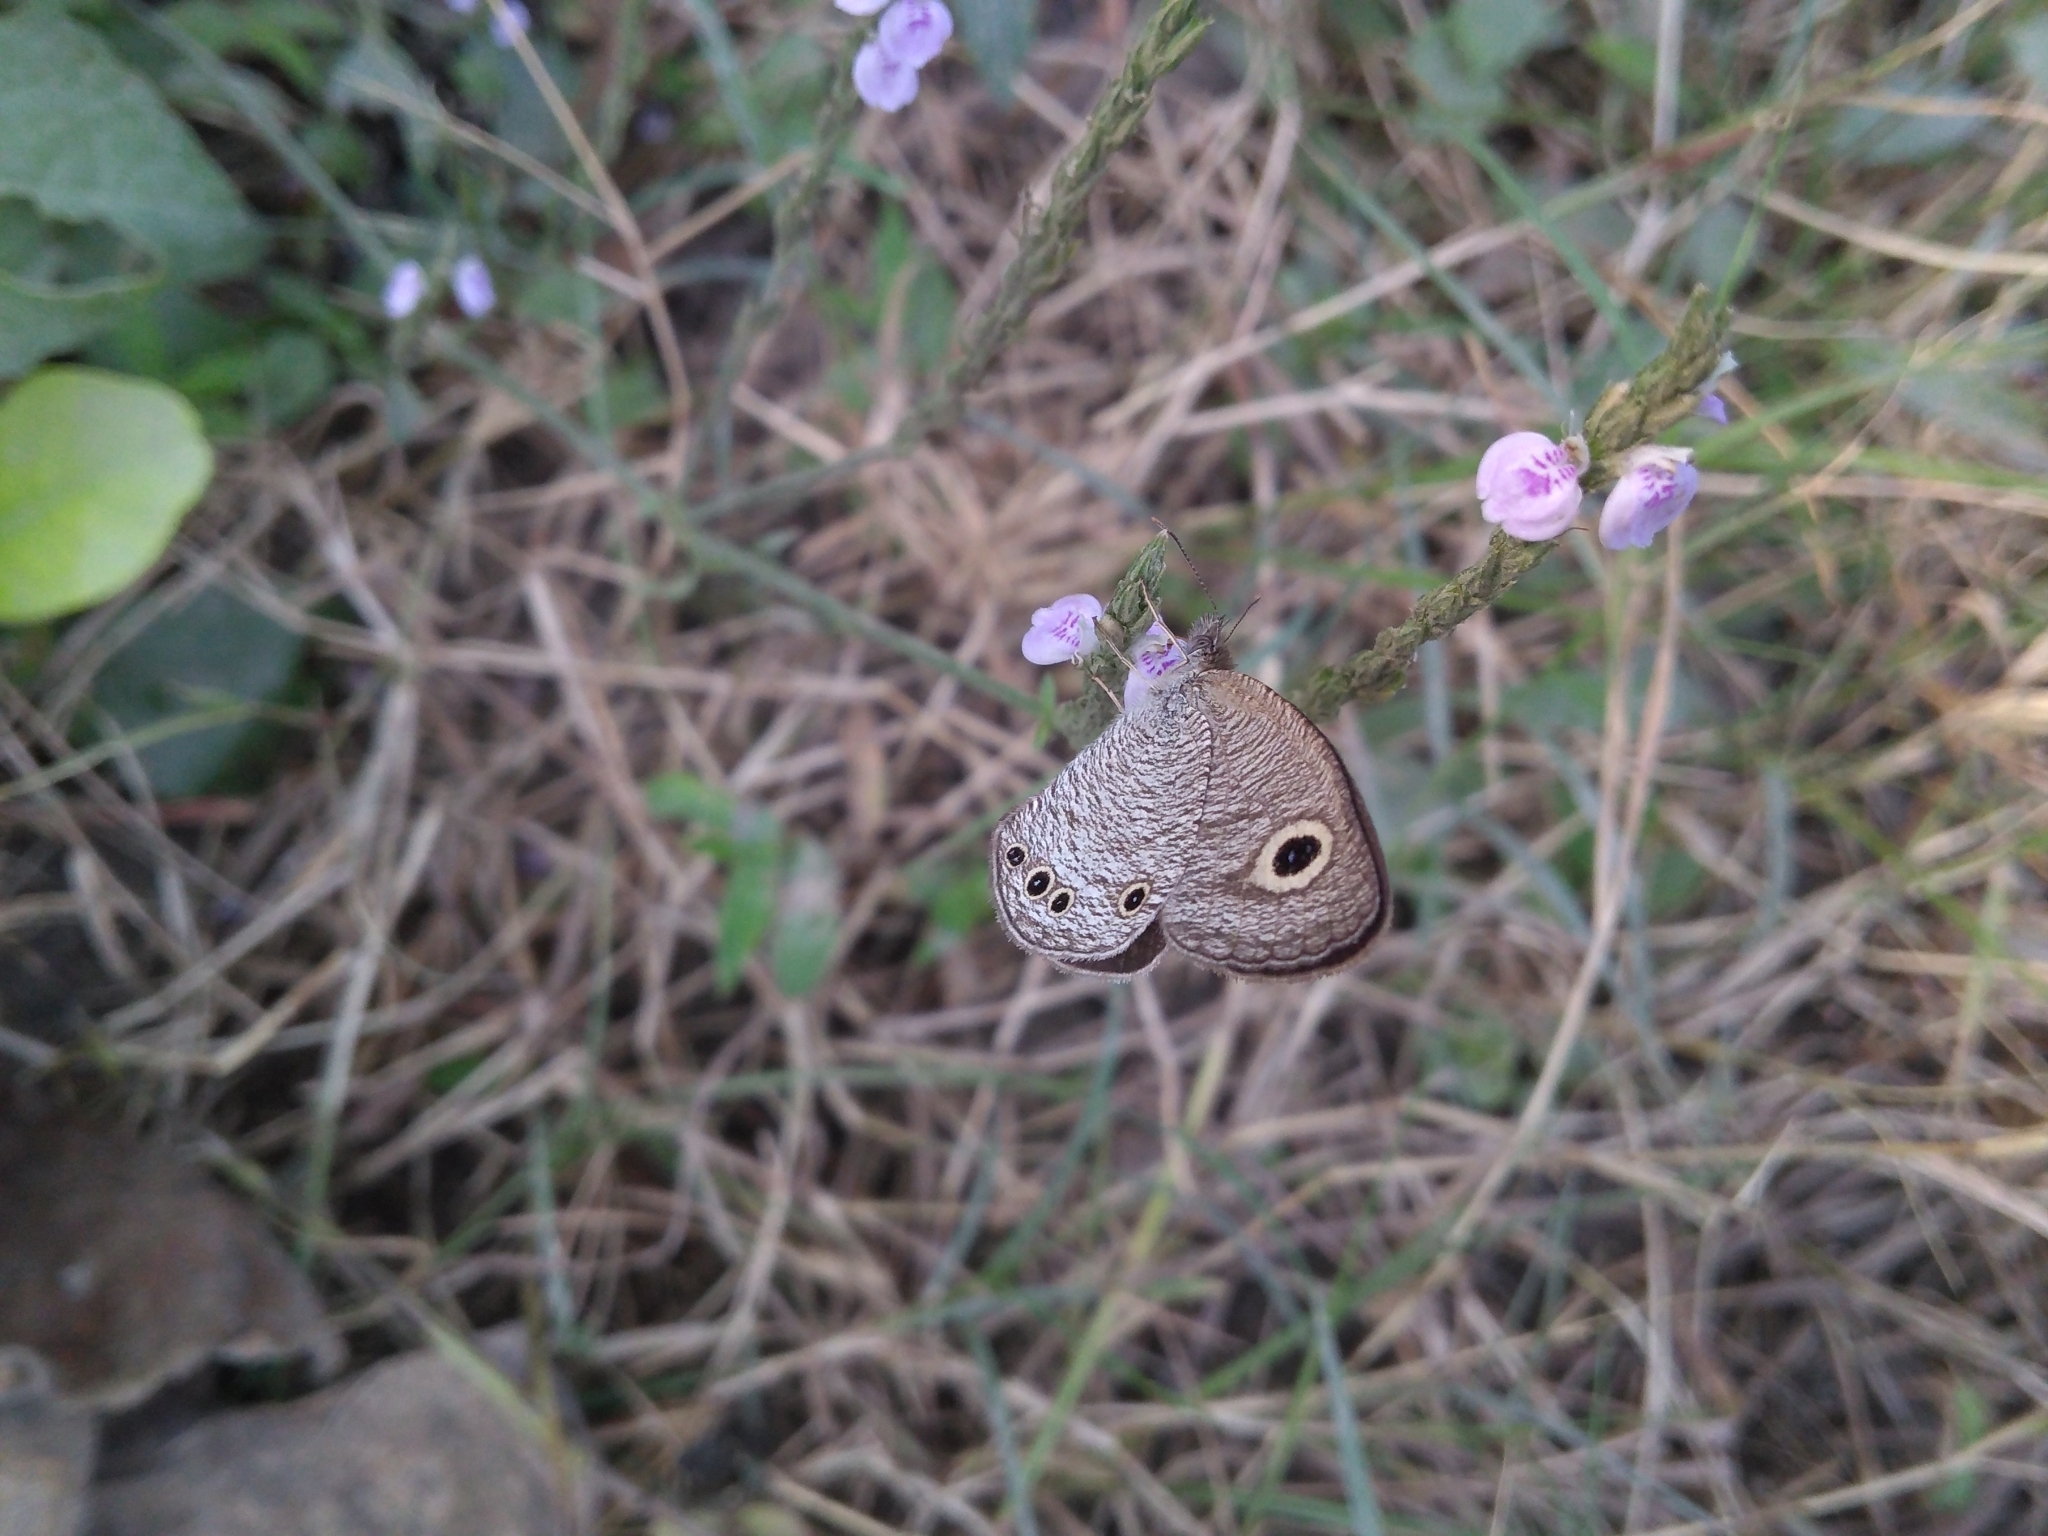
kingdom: Animalia
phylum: Arthropoda
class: Insecta
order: Lepidoptera
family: Nymphalidae
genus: Ypthima
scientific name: Ypthima huebneri
